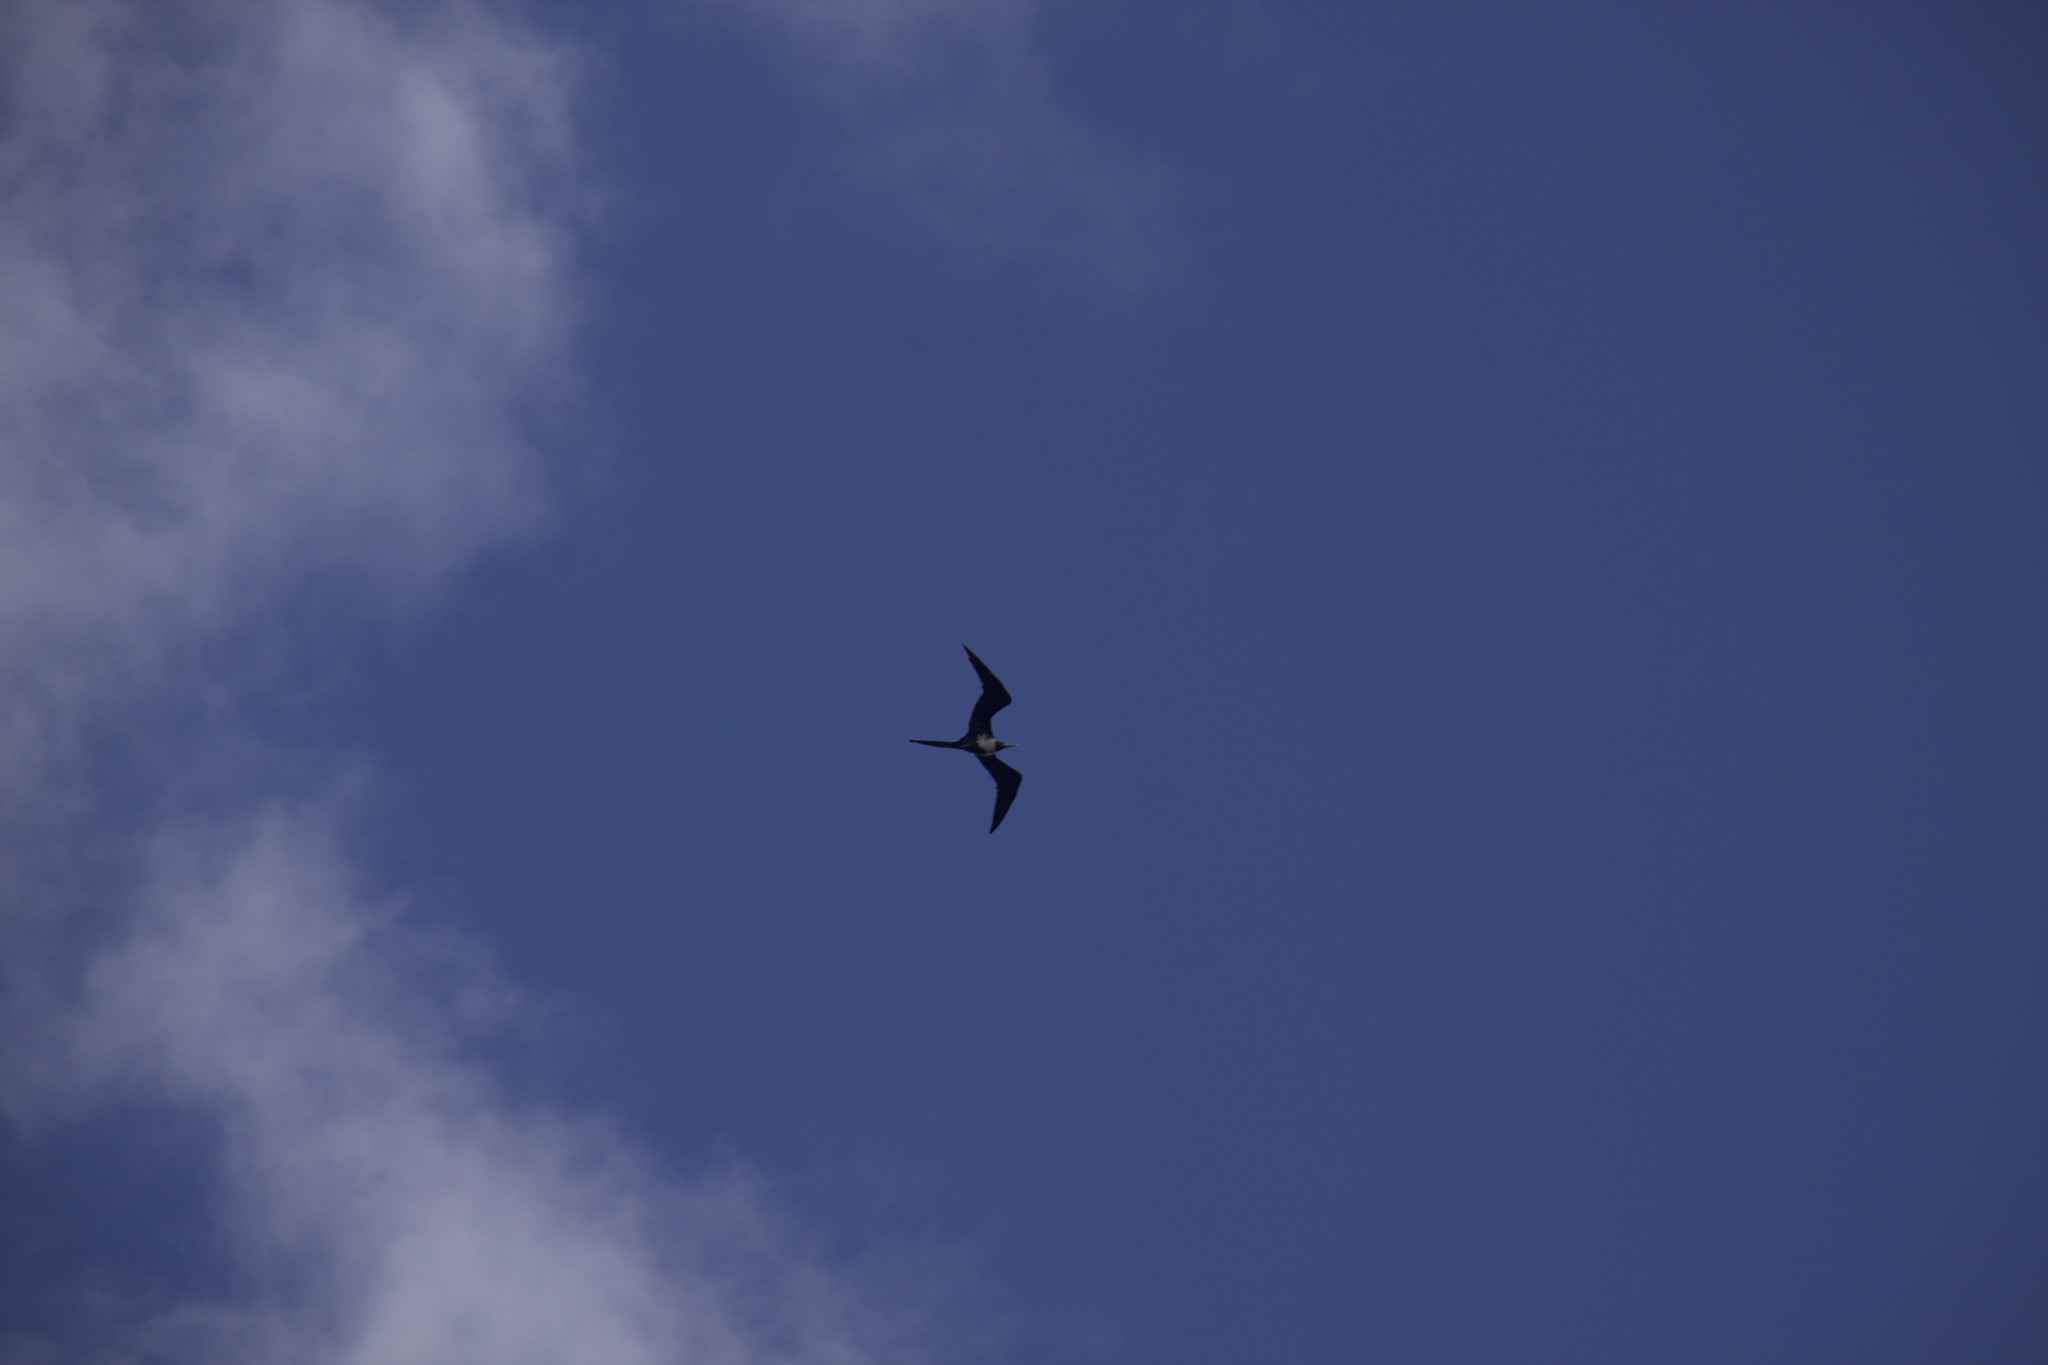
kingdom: Animalia
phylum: Chordata
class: Aves
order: Suliformes
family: Fregatidae
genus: Fregata
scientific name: Fregata magnificens
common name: Magnificent frigatebird
